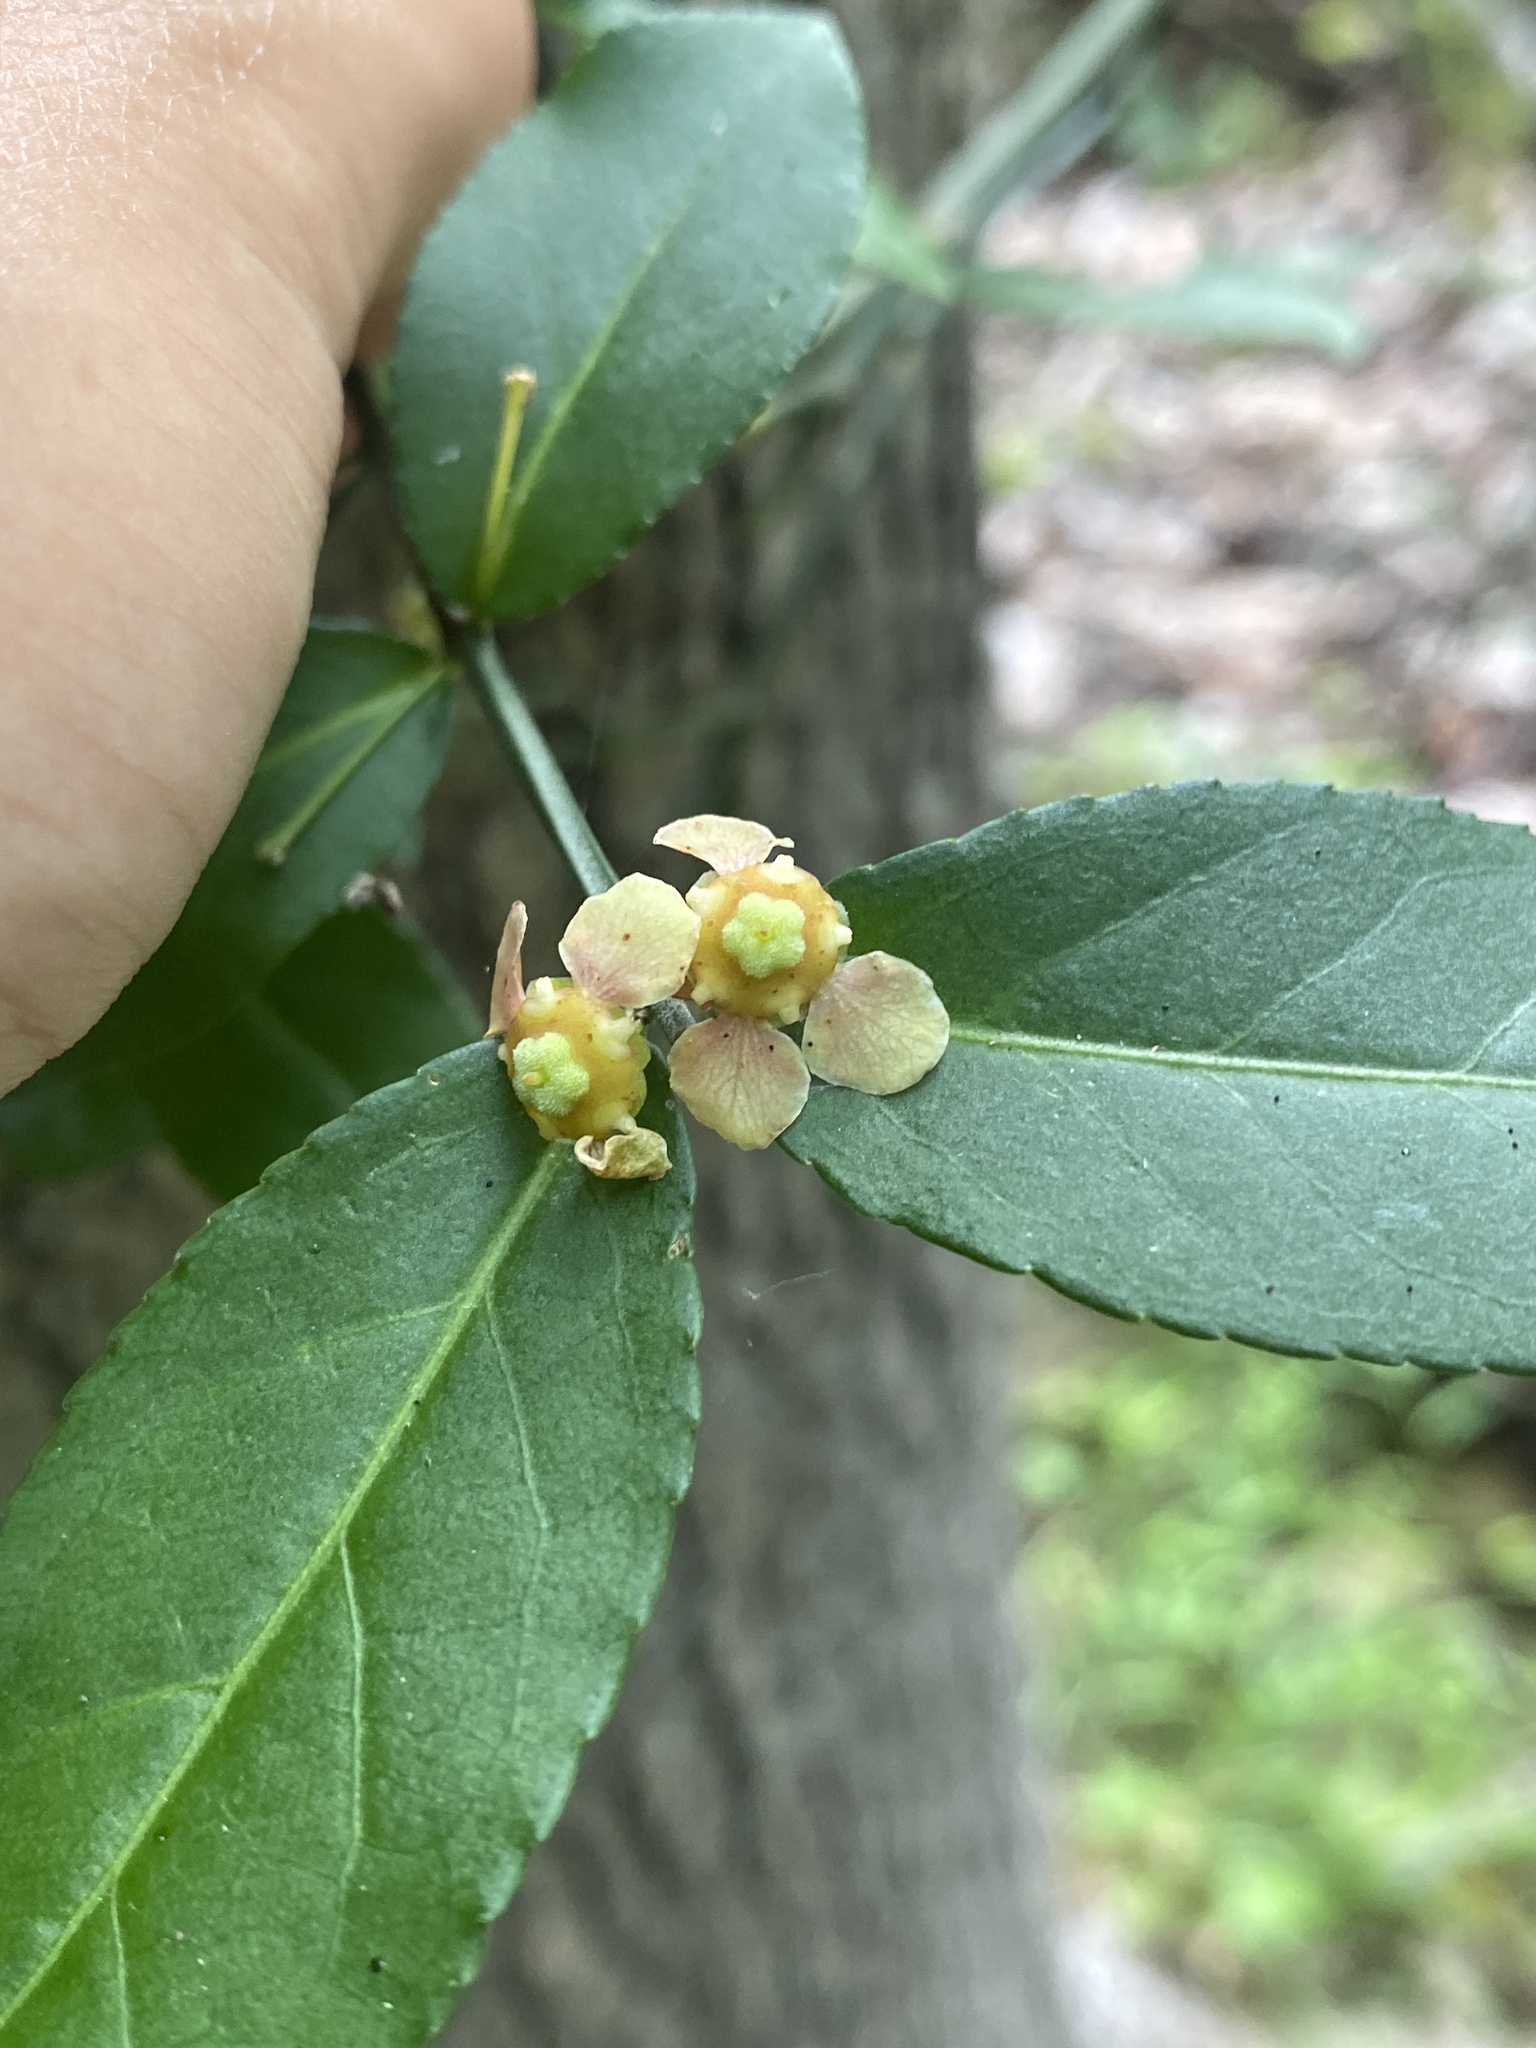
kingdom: Plantae
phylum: Tracheophyta
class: Magnoliopsida
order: Celastrales
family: Celastraceae
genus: Euonymus
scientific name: Euonymus americanus
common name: Bursting-heart
